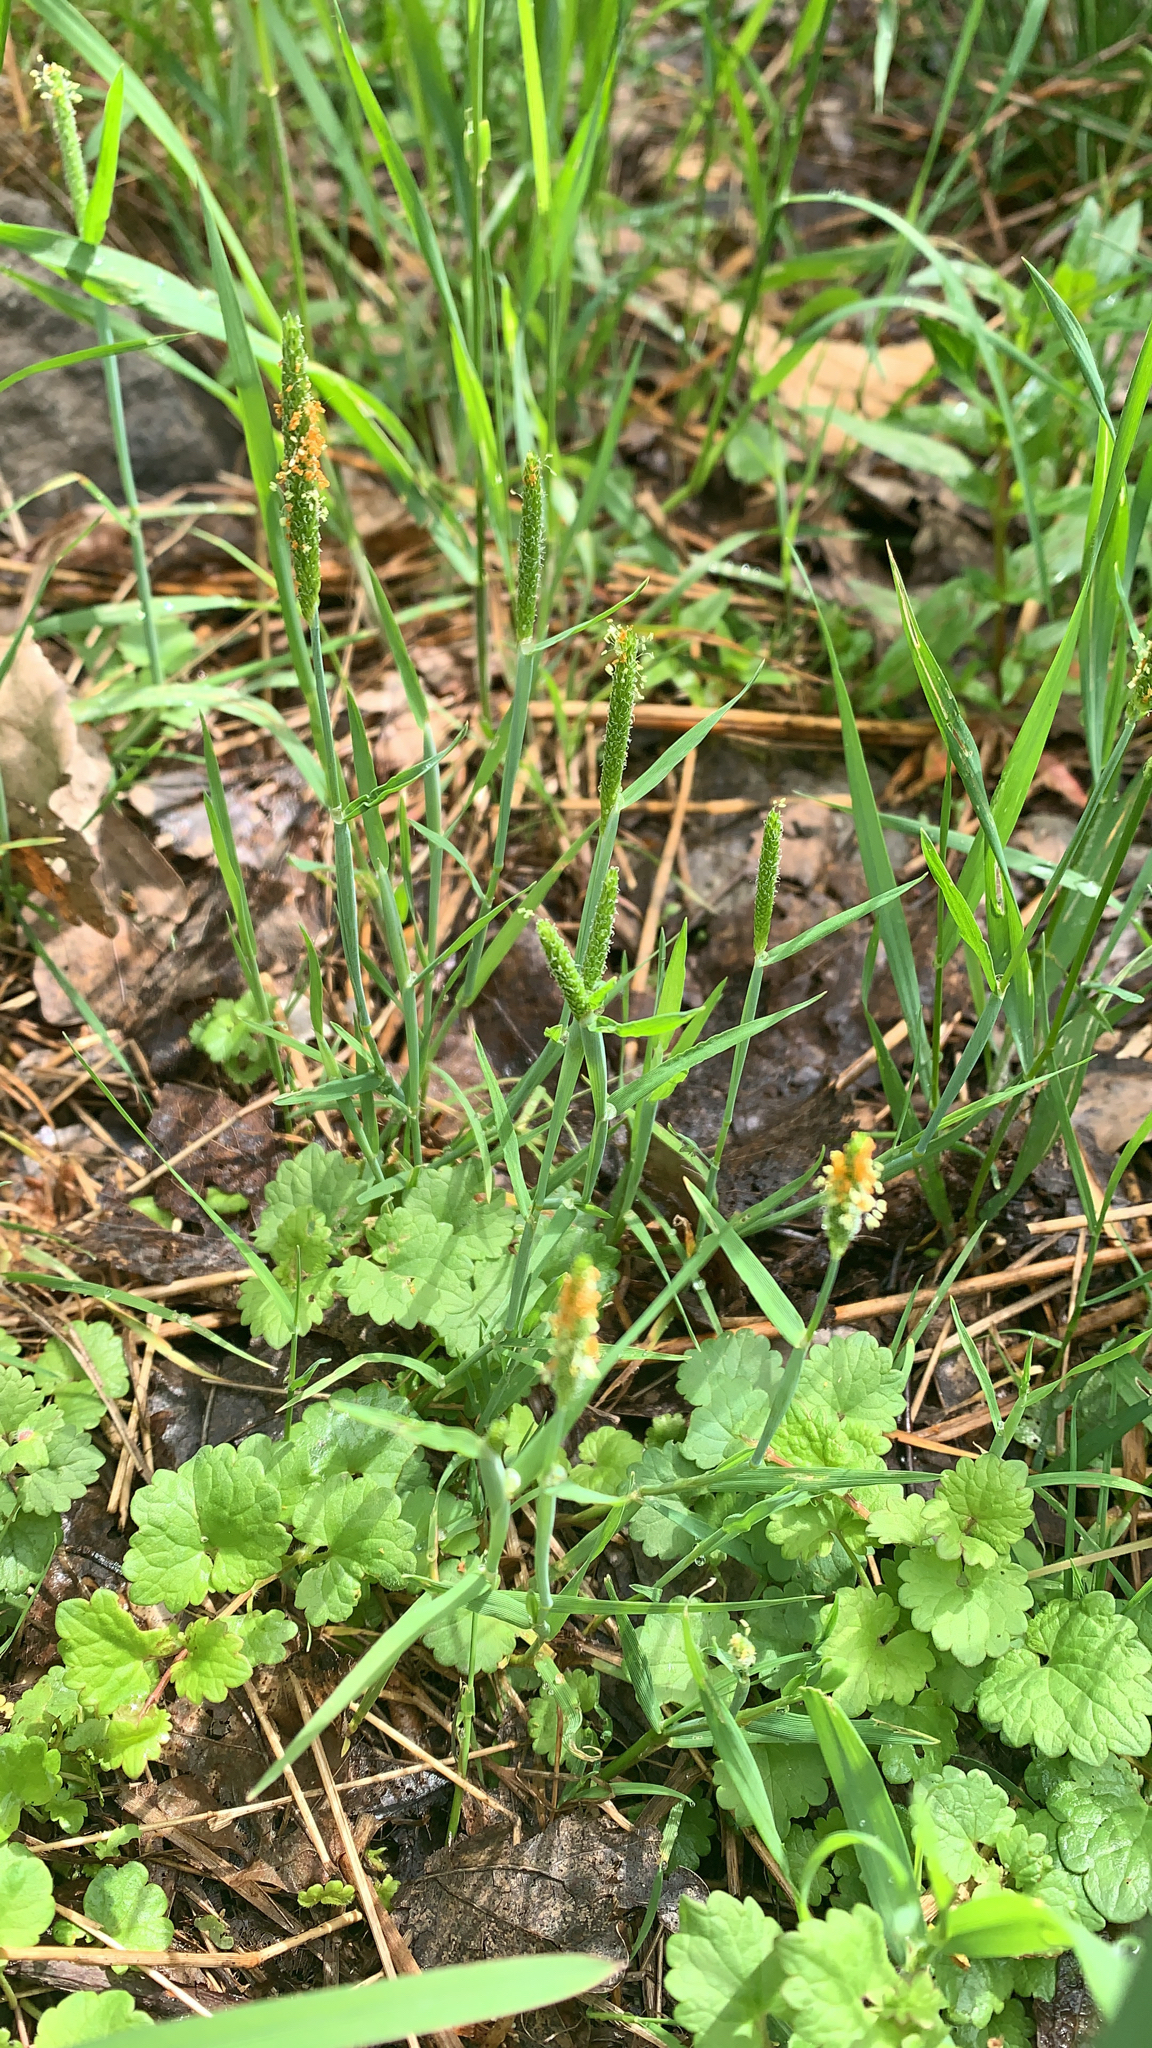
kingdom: Plantae
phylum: Tracheophyta
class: Liliopsida
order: Poales
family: Poaceae
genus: Alopecurus
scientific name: Alopecurus aequalis
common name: Orange foxtail
